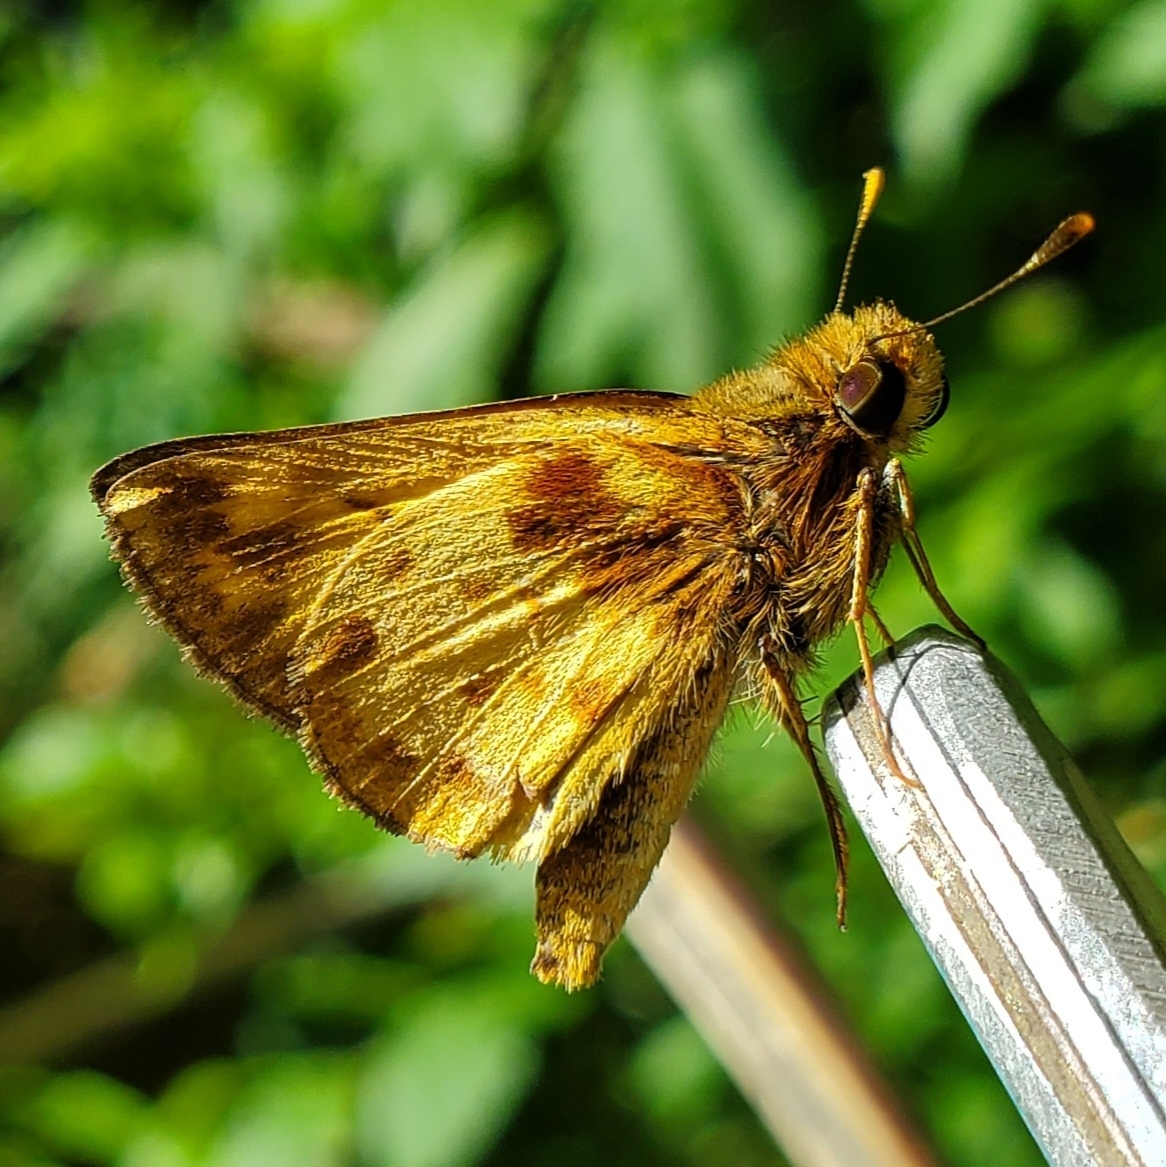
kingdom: Animalia
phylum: Arthropoda
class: Insecta
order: Lepidoptera
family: Hesperiidae
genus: Lon
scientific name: Lon zabulon
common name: Zabulon skipper
